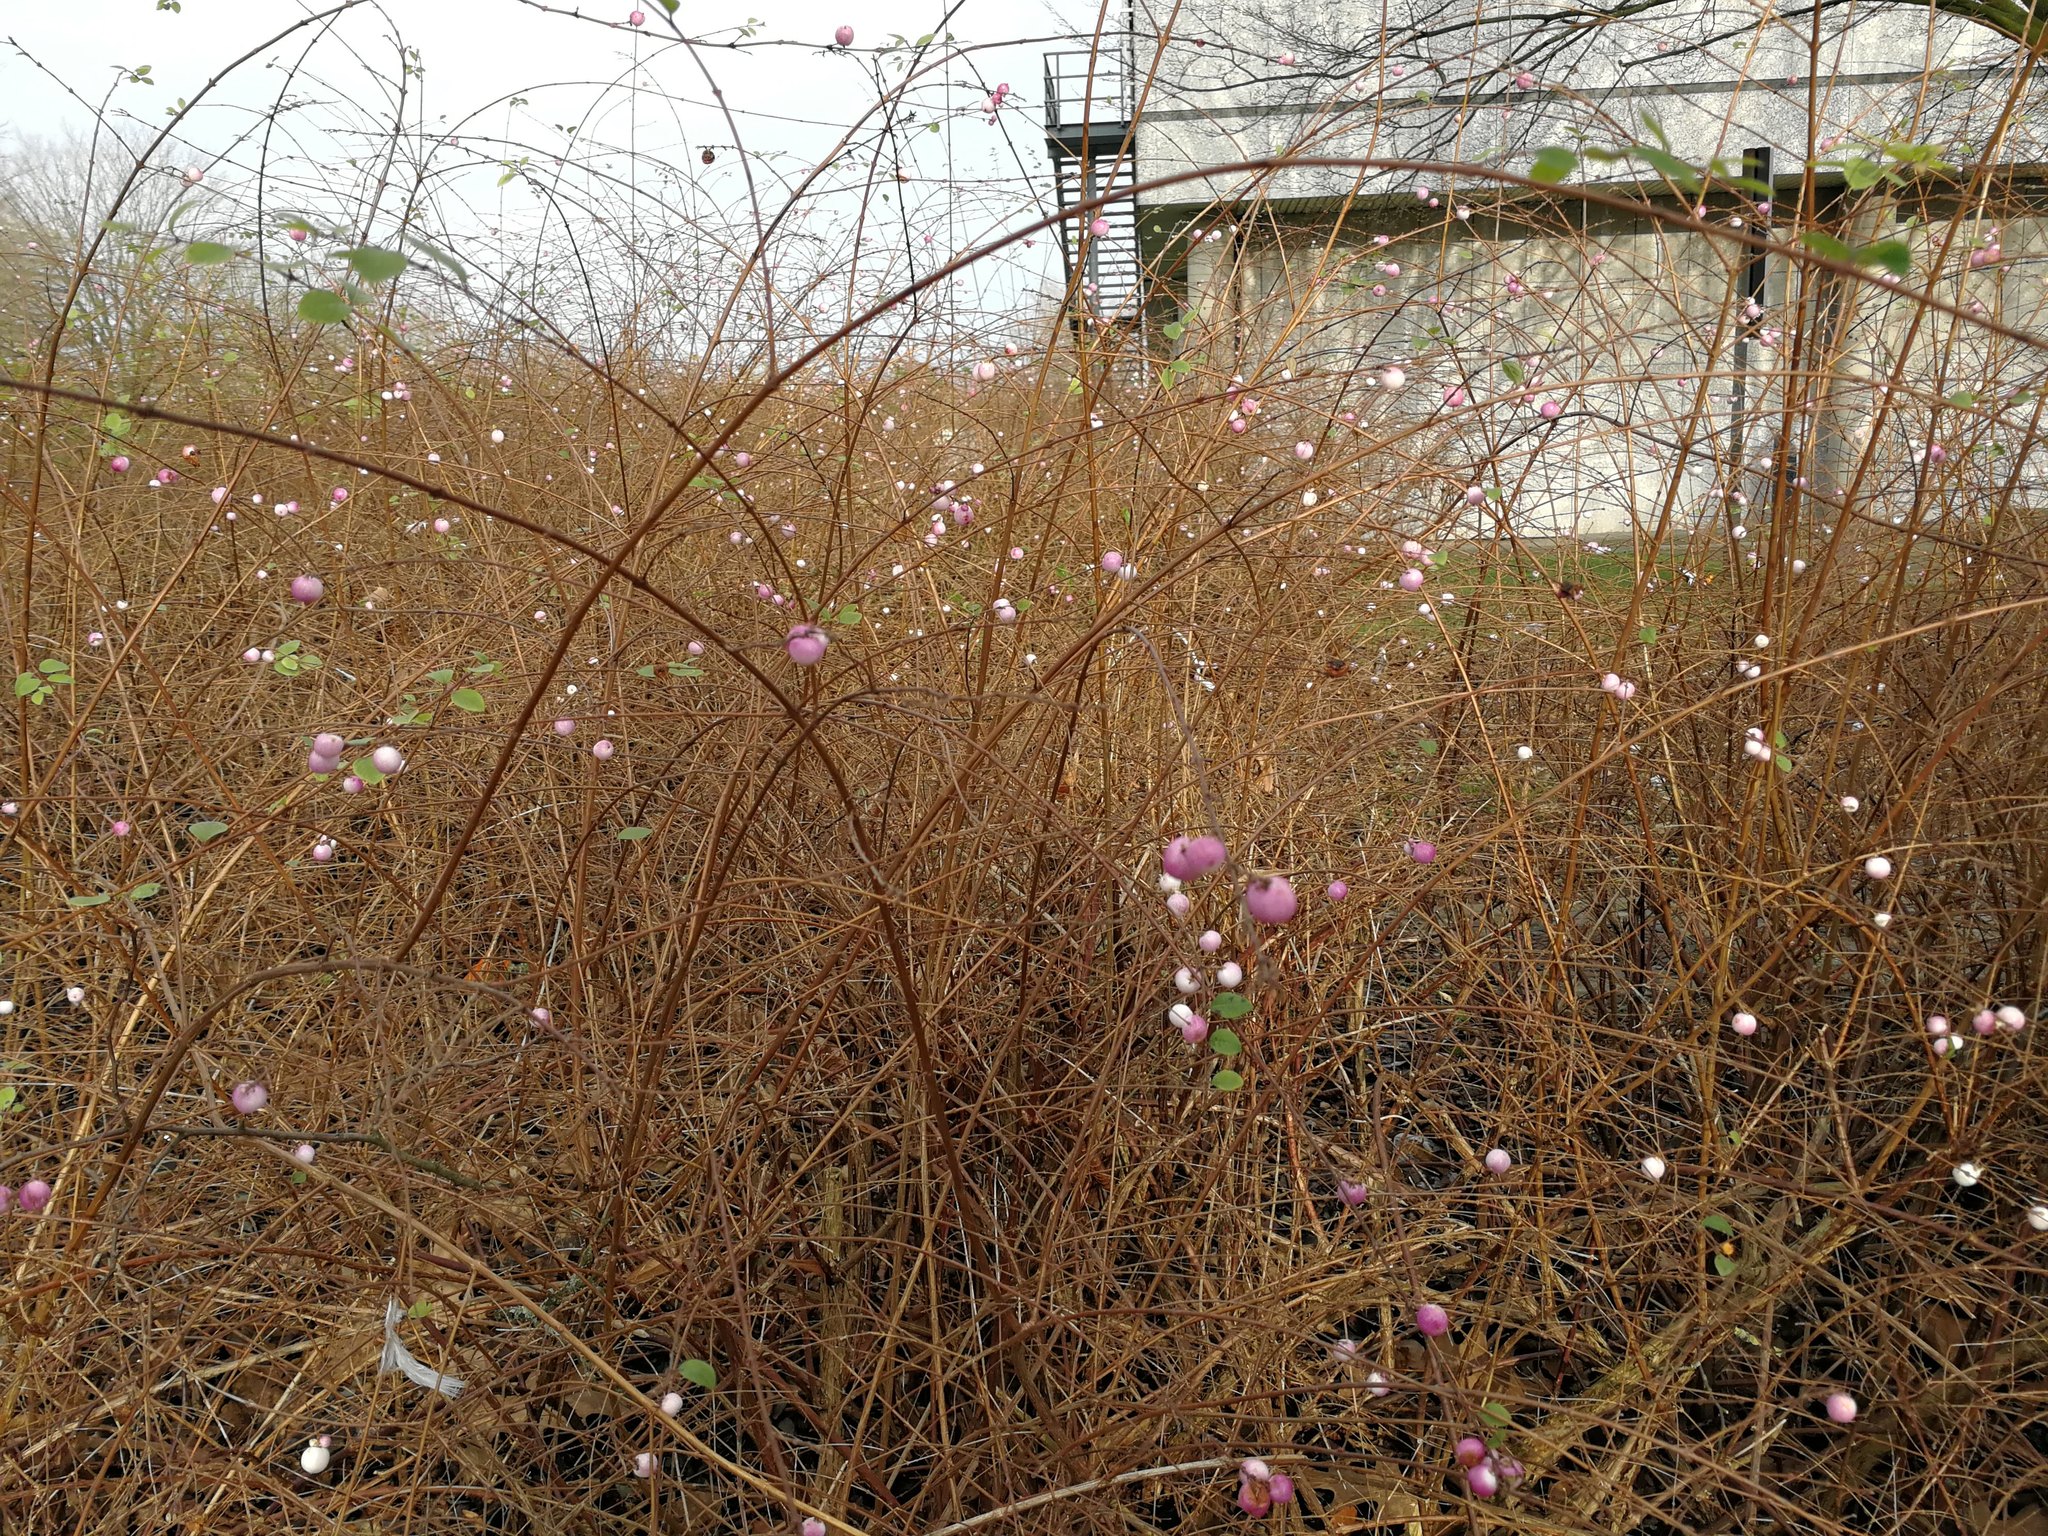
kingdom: Plantae
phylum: Tracheophyta
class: Magnoliopsida
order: Dipsacales
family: Caprifoliaceae
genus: Symphoricarpos
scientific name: Symphoricarpos albus
